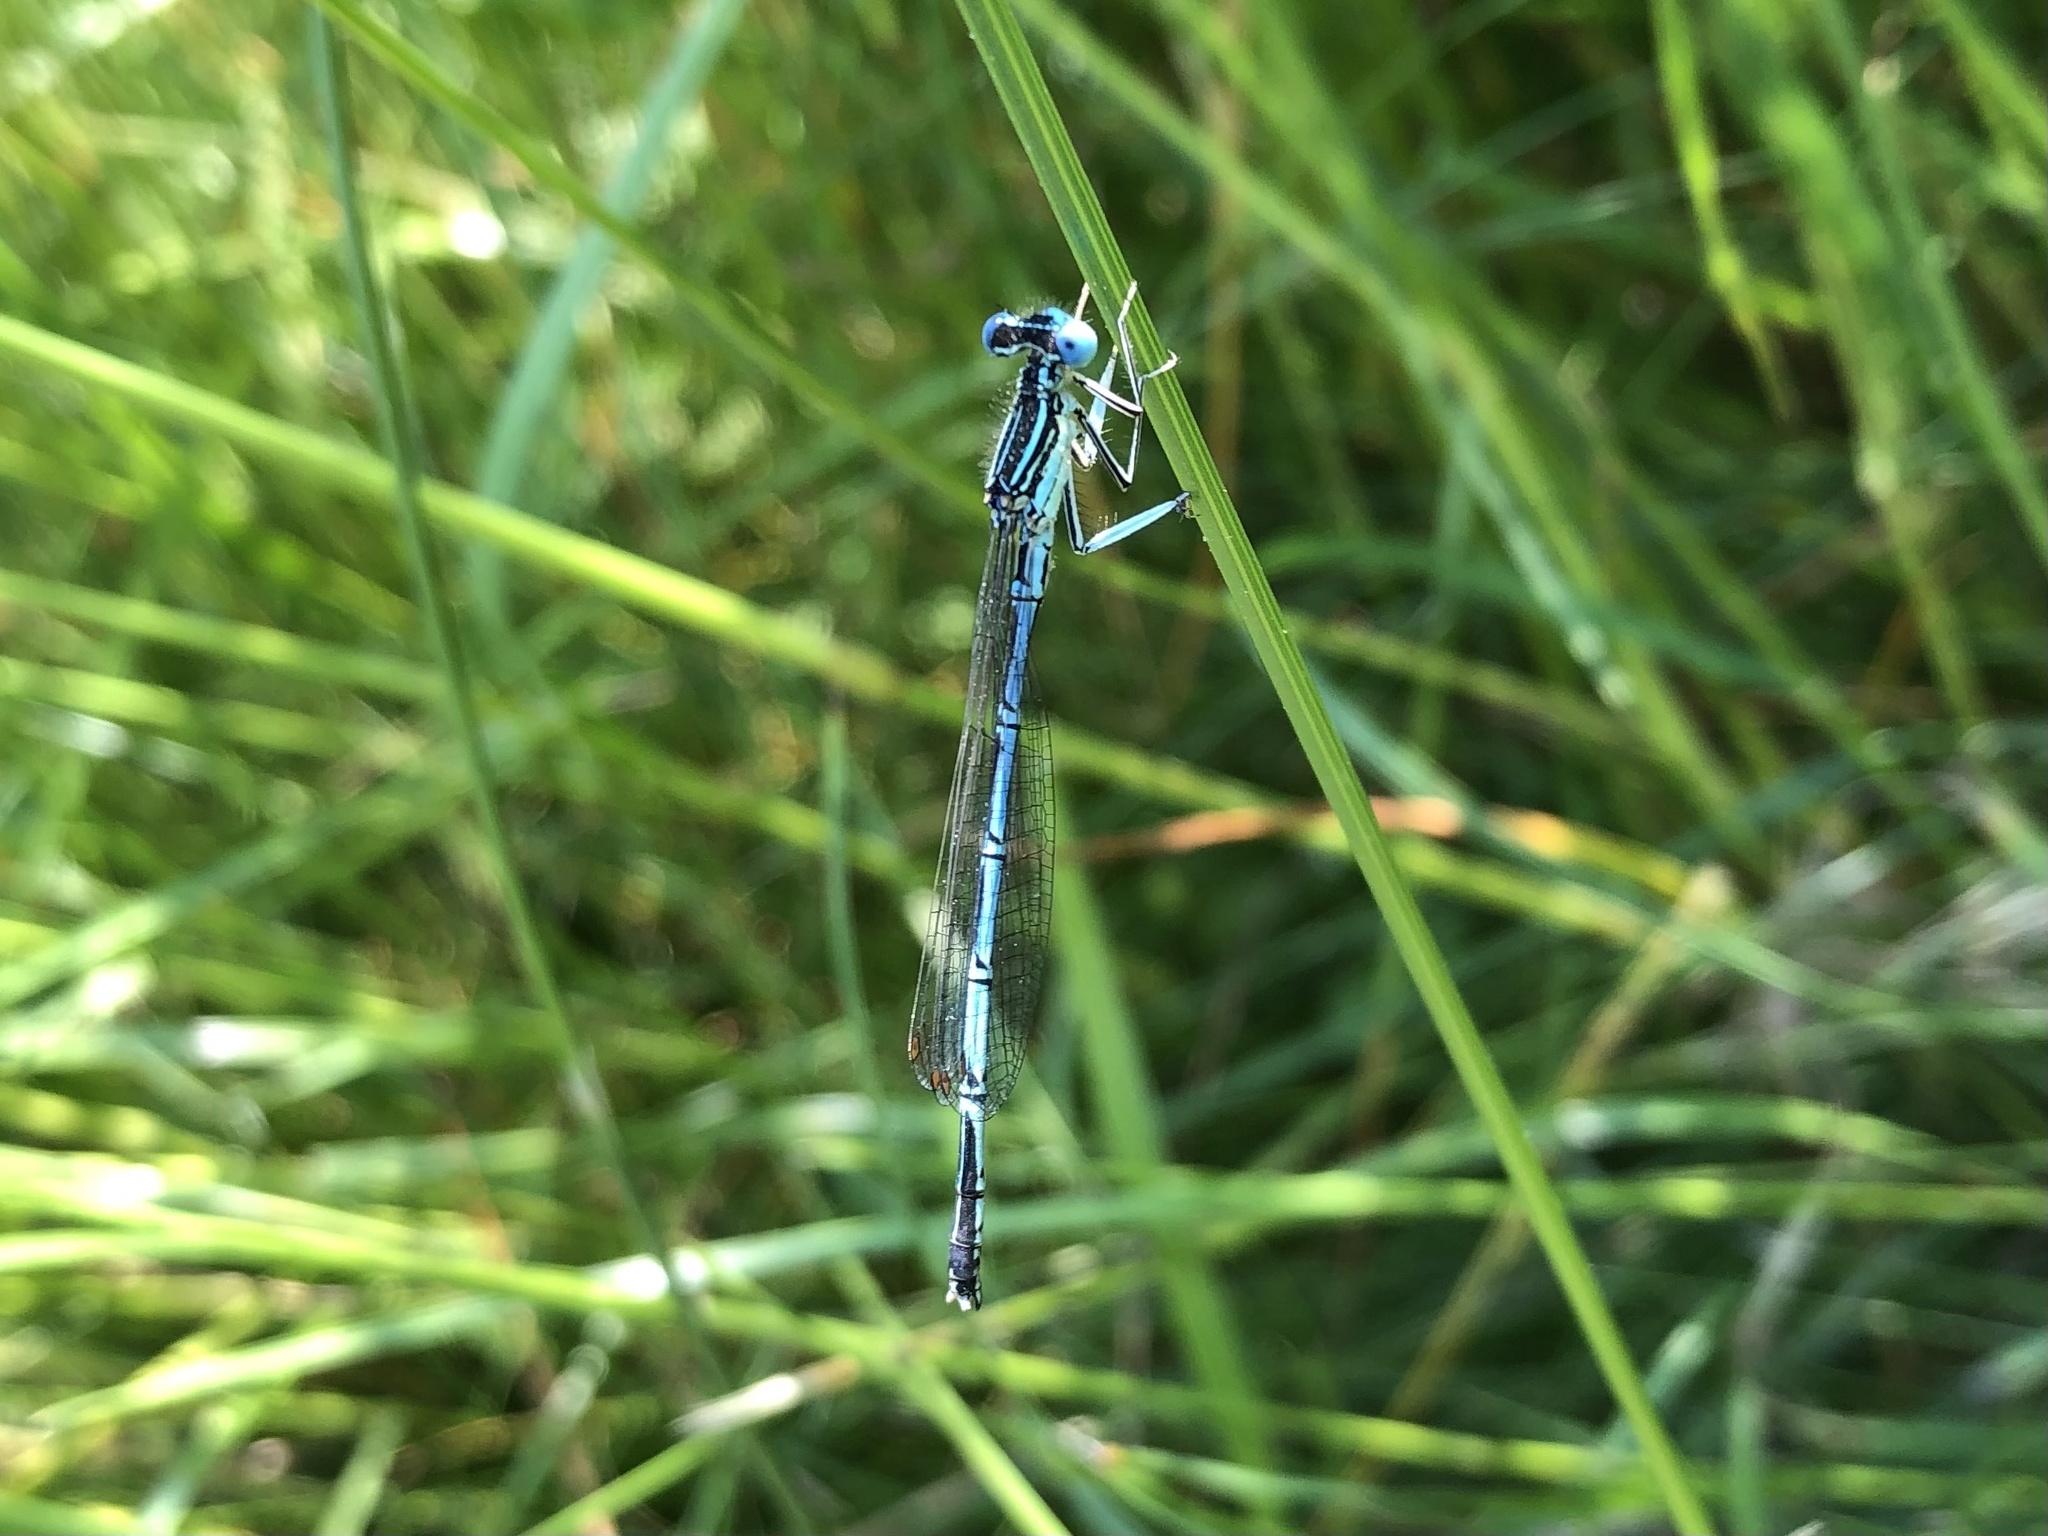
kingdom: Animalia
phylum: Arthropoda
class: Insecta
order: Odonata
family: Platycnemididae
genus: Platycnemis
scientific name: Platycnemis pennipes
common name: White-legged damselfly
